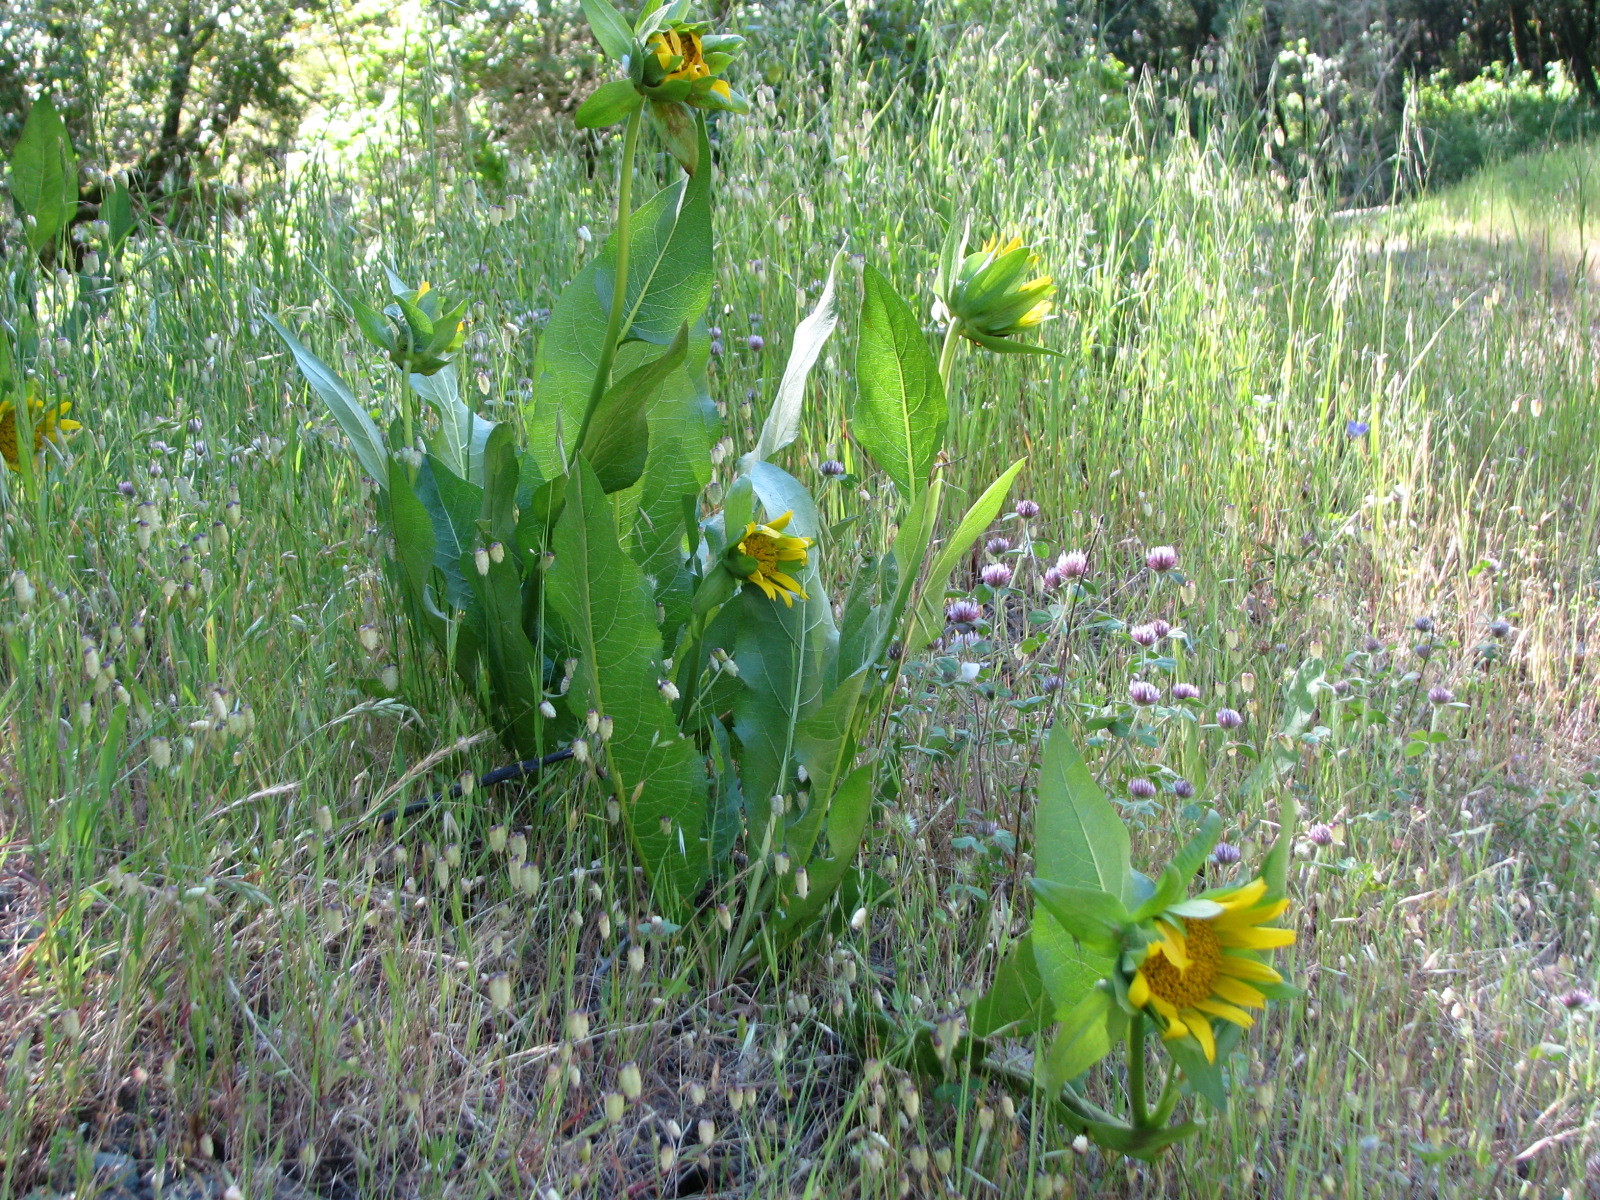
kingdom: Plantae
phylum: Tracheophyta
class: Magnoliopsida
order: Asterales
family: Asteraceae
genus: Wyethia
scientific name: Wyethia glabra
